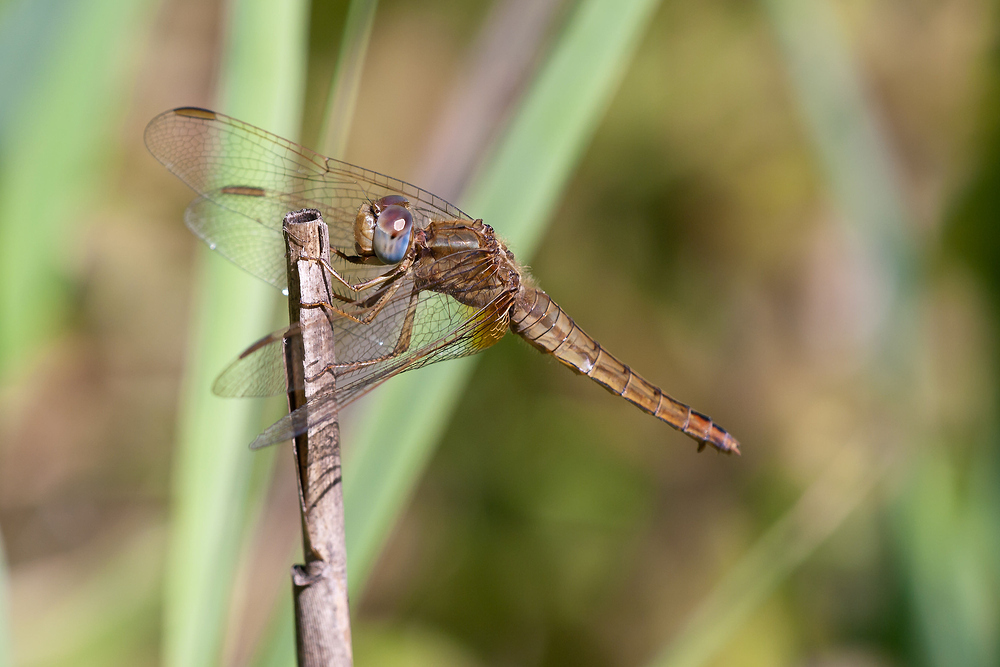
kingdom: Animalia
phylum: Arthropoda
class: Insecta
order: Odonata
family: Libellulidae
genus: Crocothemis
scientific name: Crocothemis erythraea
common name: Scarlet dragonfly
